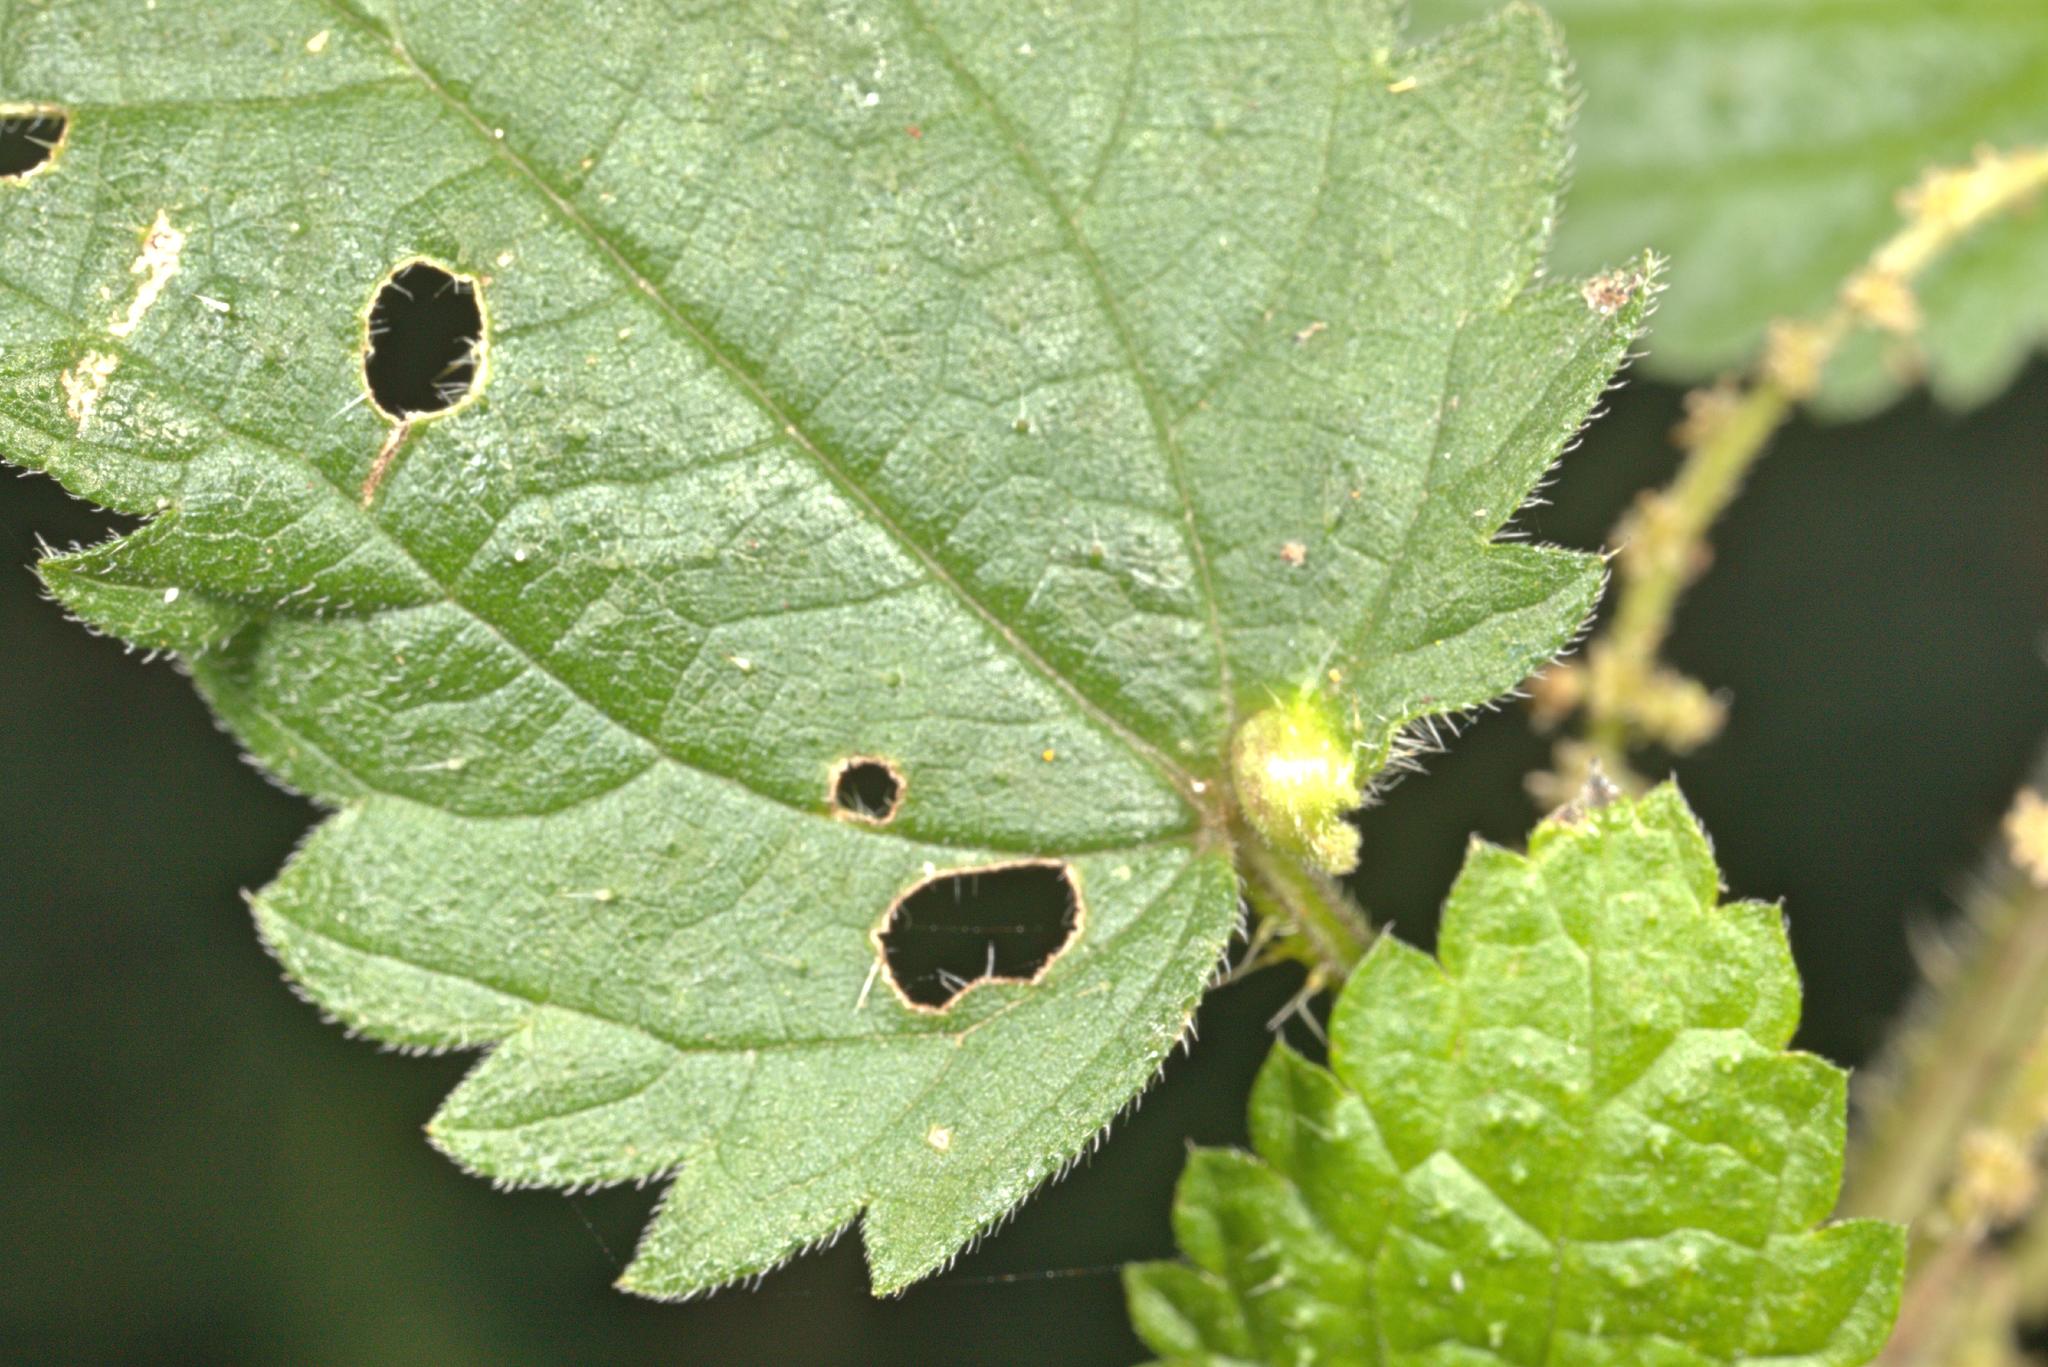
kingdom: Animalia
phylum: Arthropoda
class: Insecta
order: Diptera
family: Cecidomyiidae
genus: Dasineura
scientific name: Dasineura urticae
